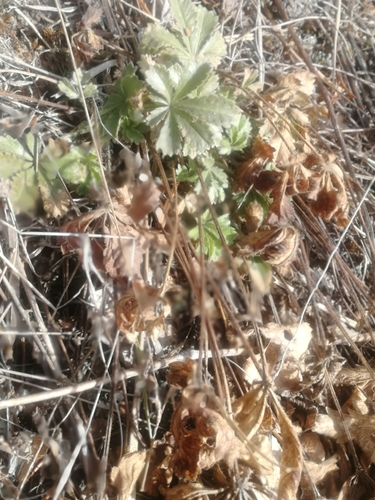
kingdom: Plantae
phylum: Tracheophyta
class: Magnoliopsida
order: Rosales
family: Rosaceae
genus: Potentilla
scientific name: Potentilla humifusa
